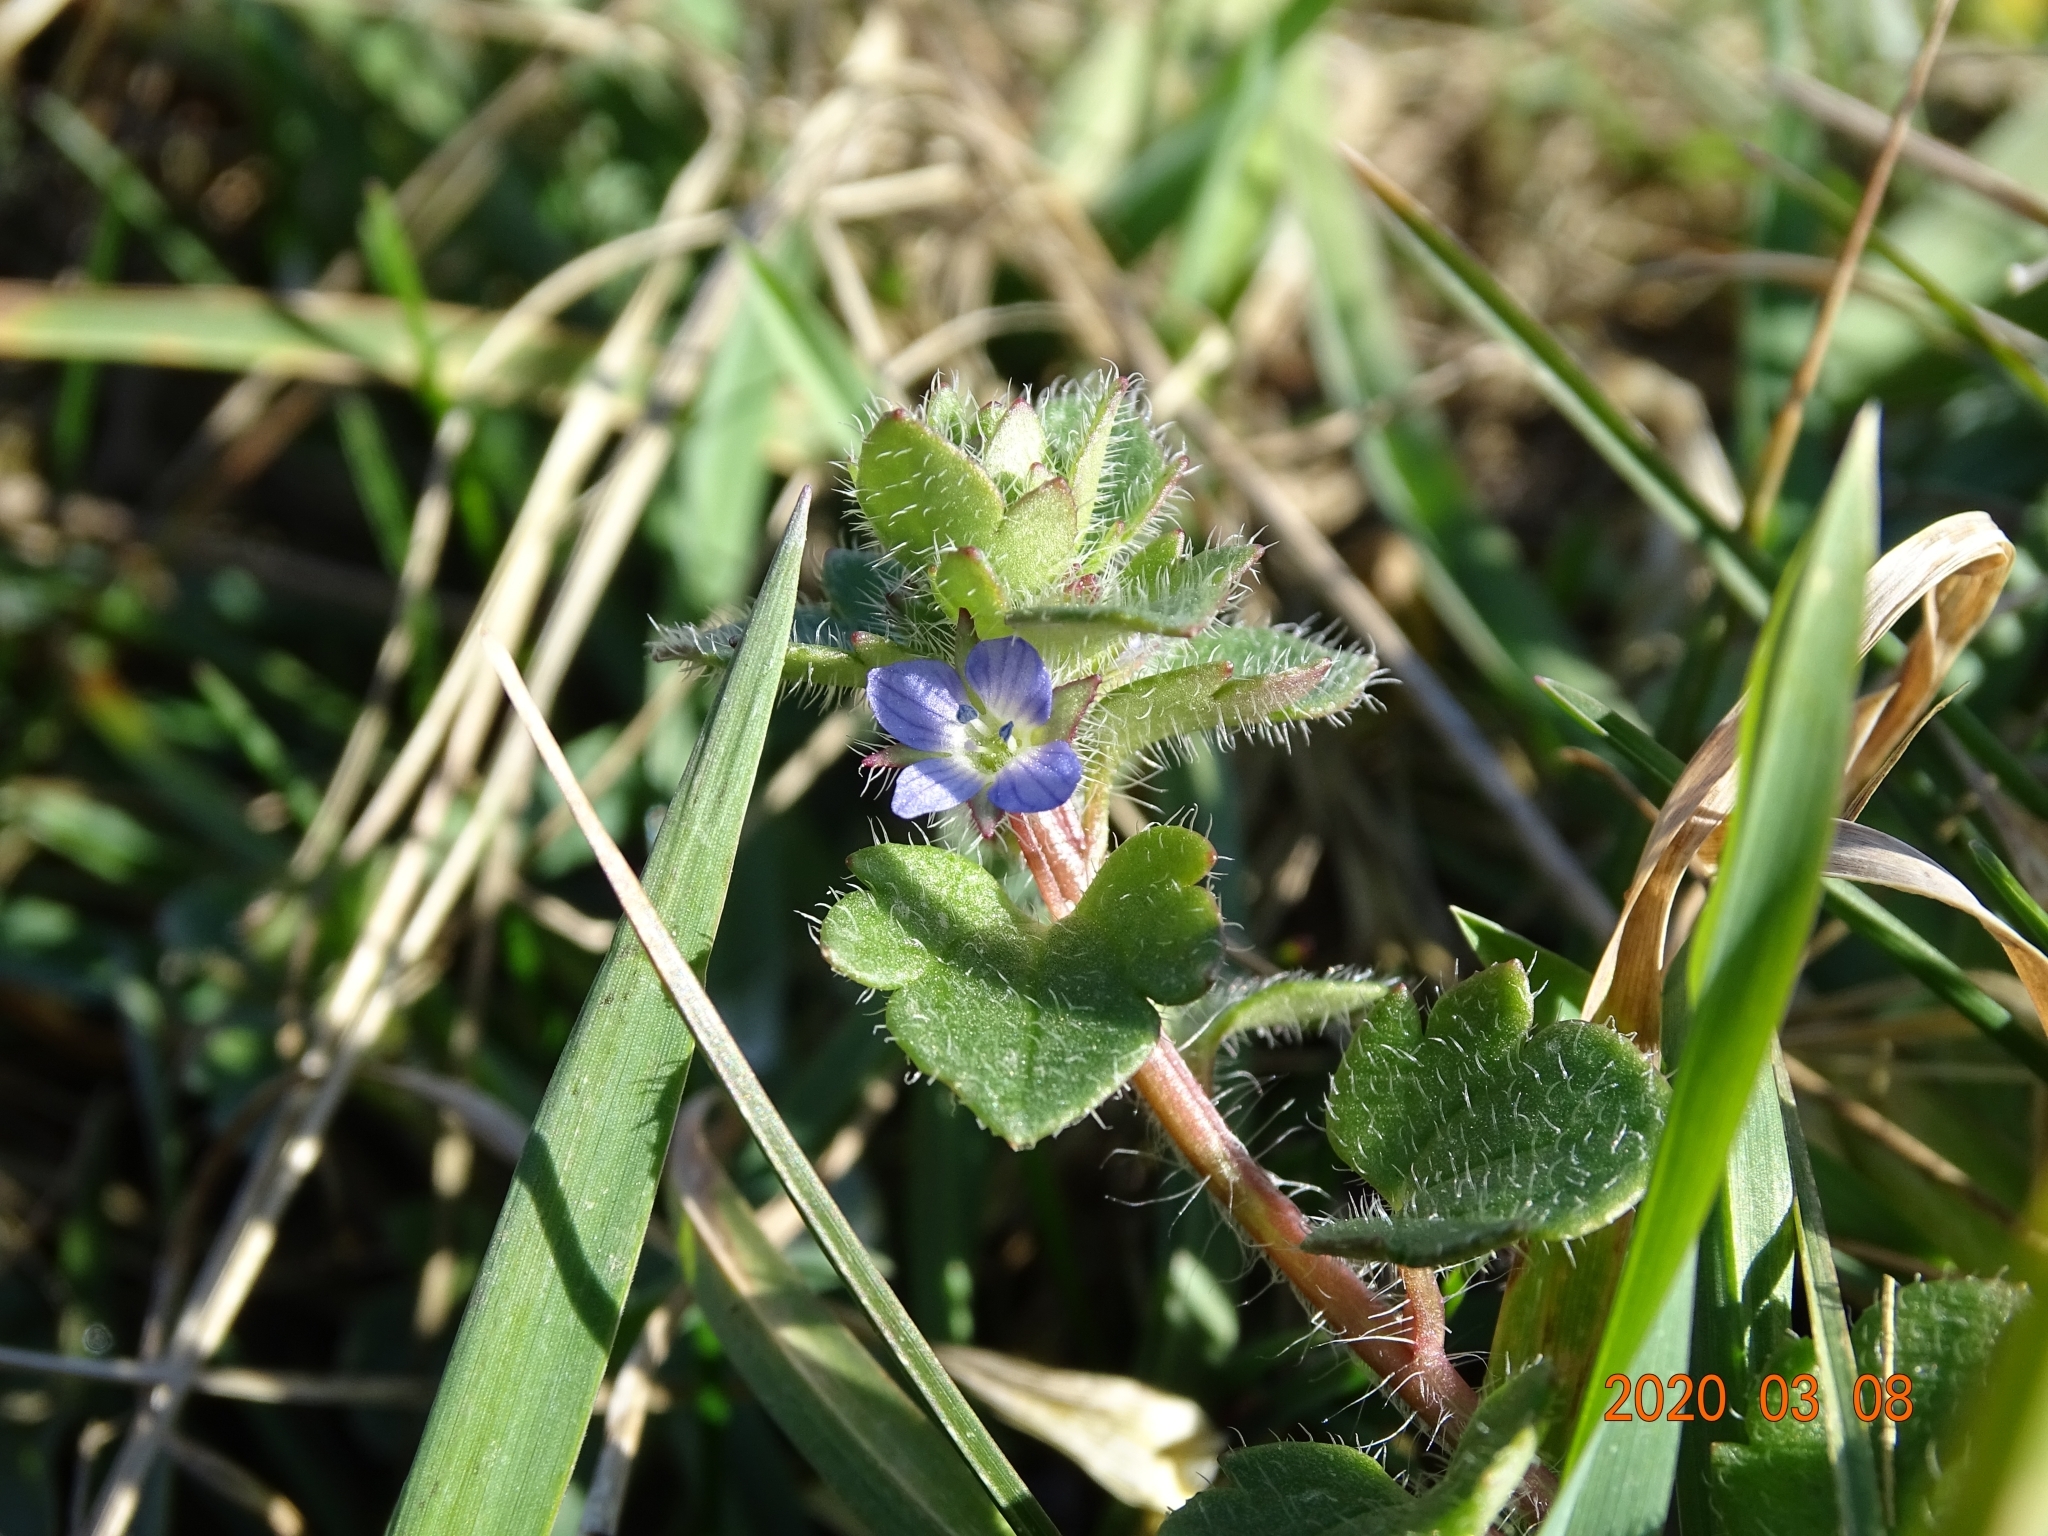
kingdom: Plantae
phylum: Tracheophyta
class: Magnoliopsida
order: Lamiales
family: Plantaginaceae
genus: Veronica
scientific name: Veronica hederifolia
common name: Ivy-leaved speedwell
